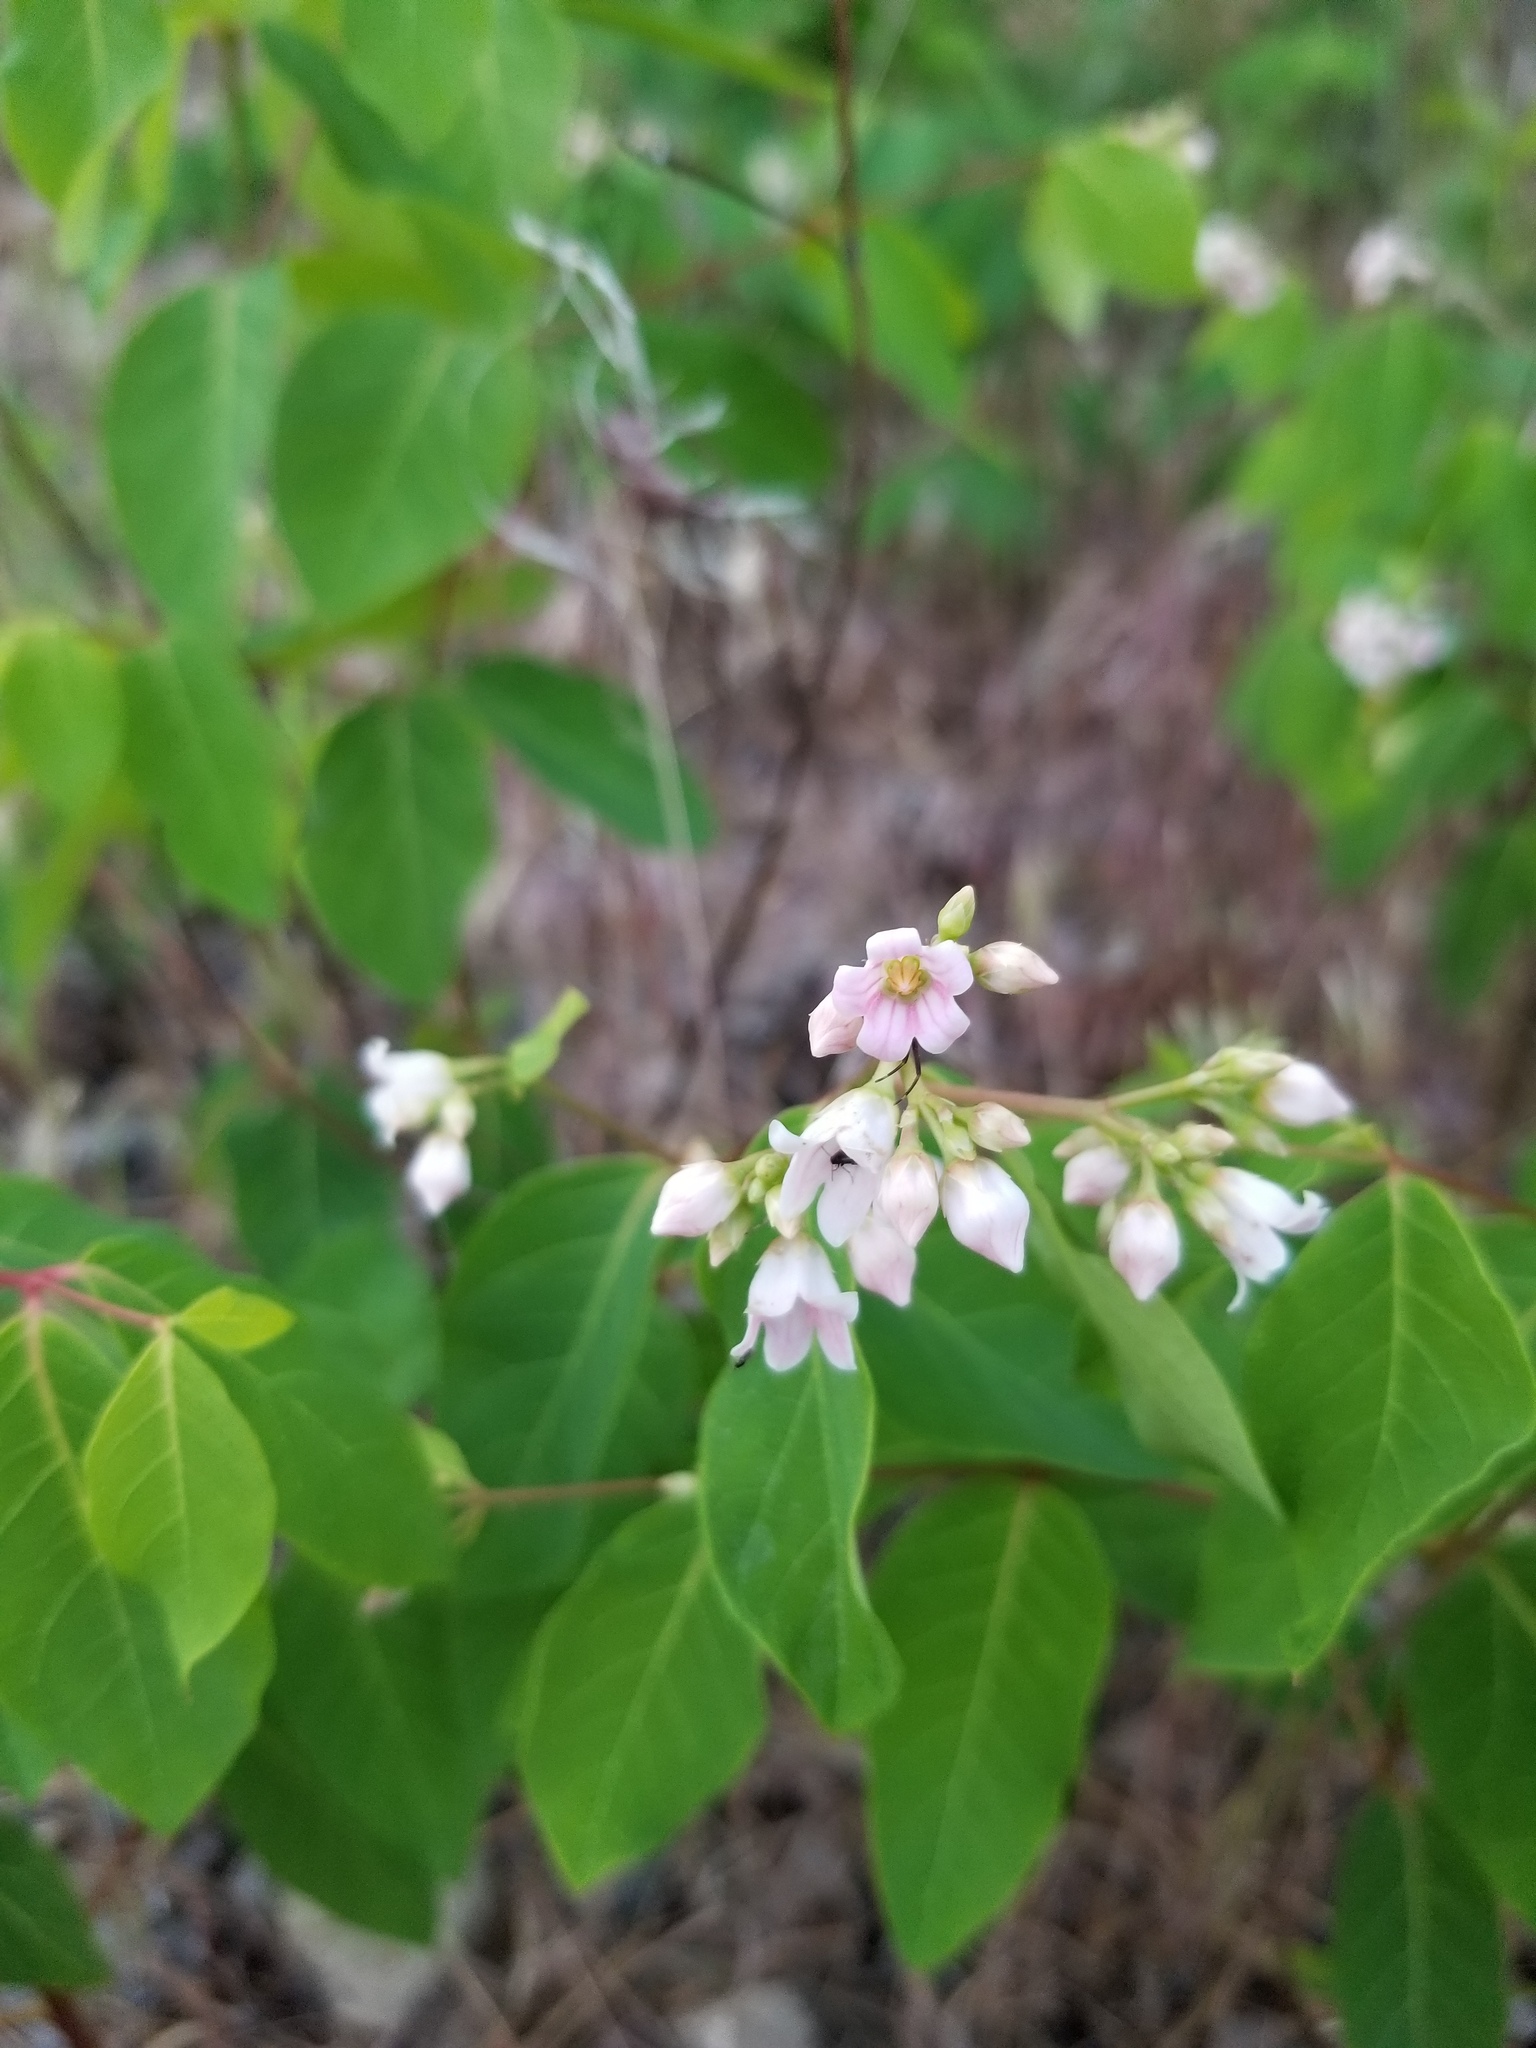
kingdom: Plantae
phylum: Tracheophyta
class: Magnoliopsida
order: Gentianales
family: Apocynaceae
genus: Apocynum
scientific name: Apocynum androsaemifolium
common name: Spreading dogbane
